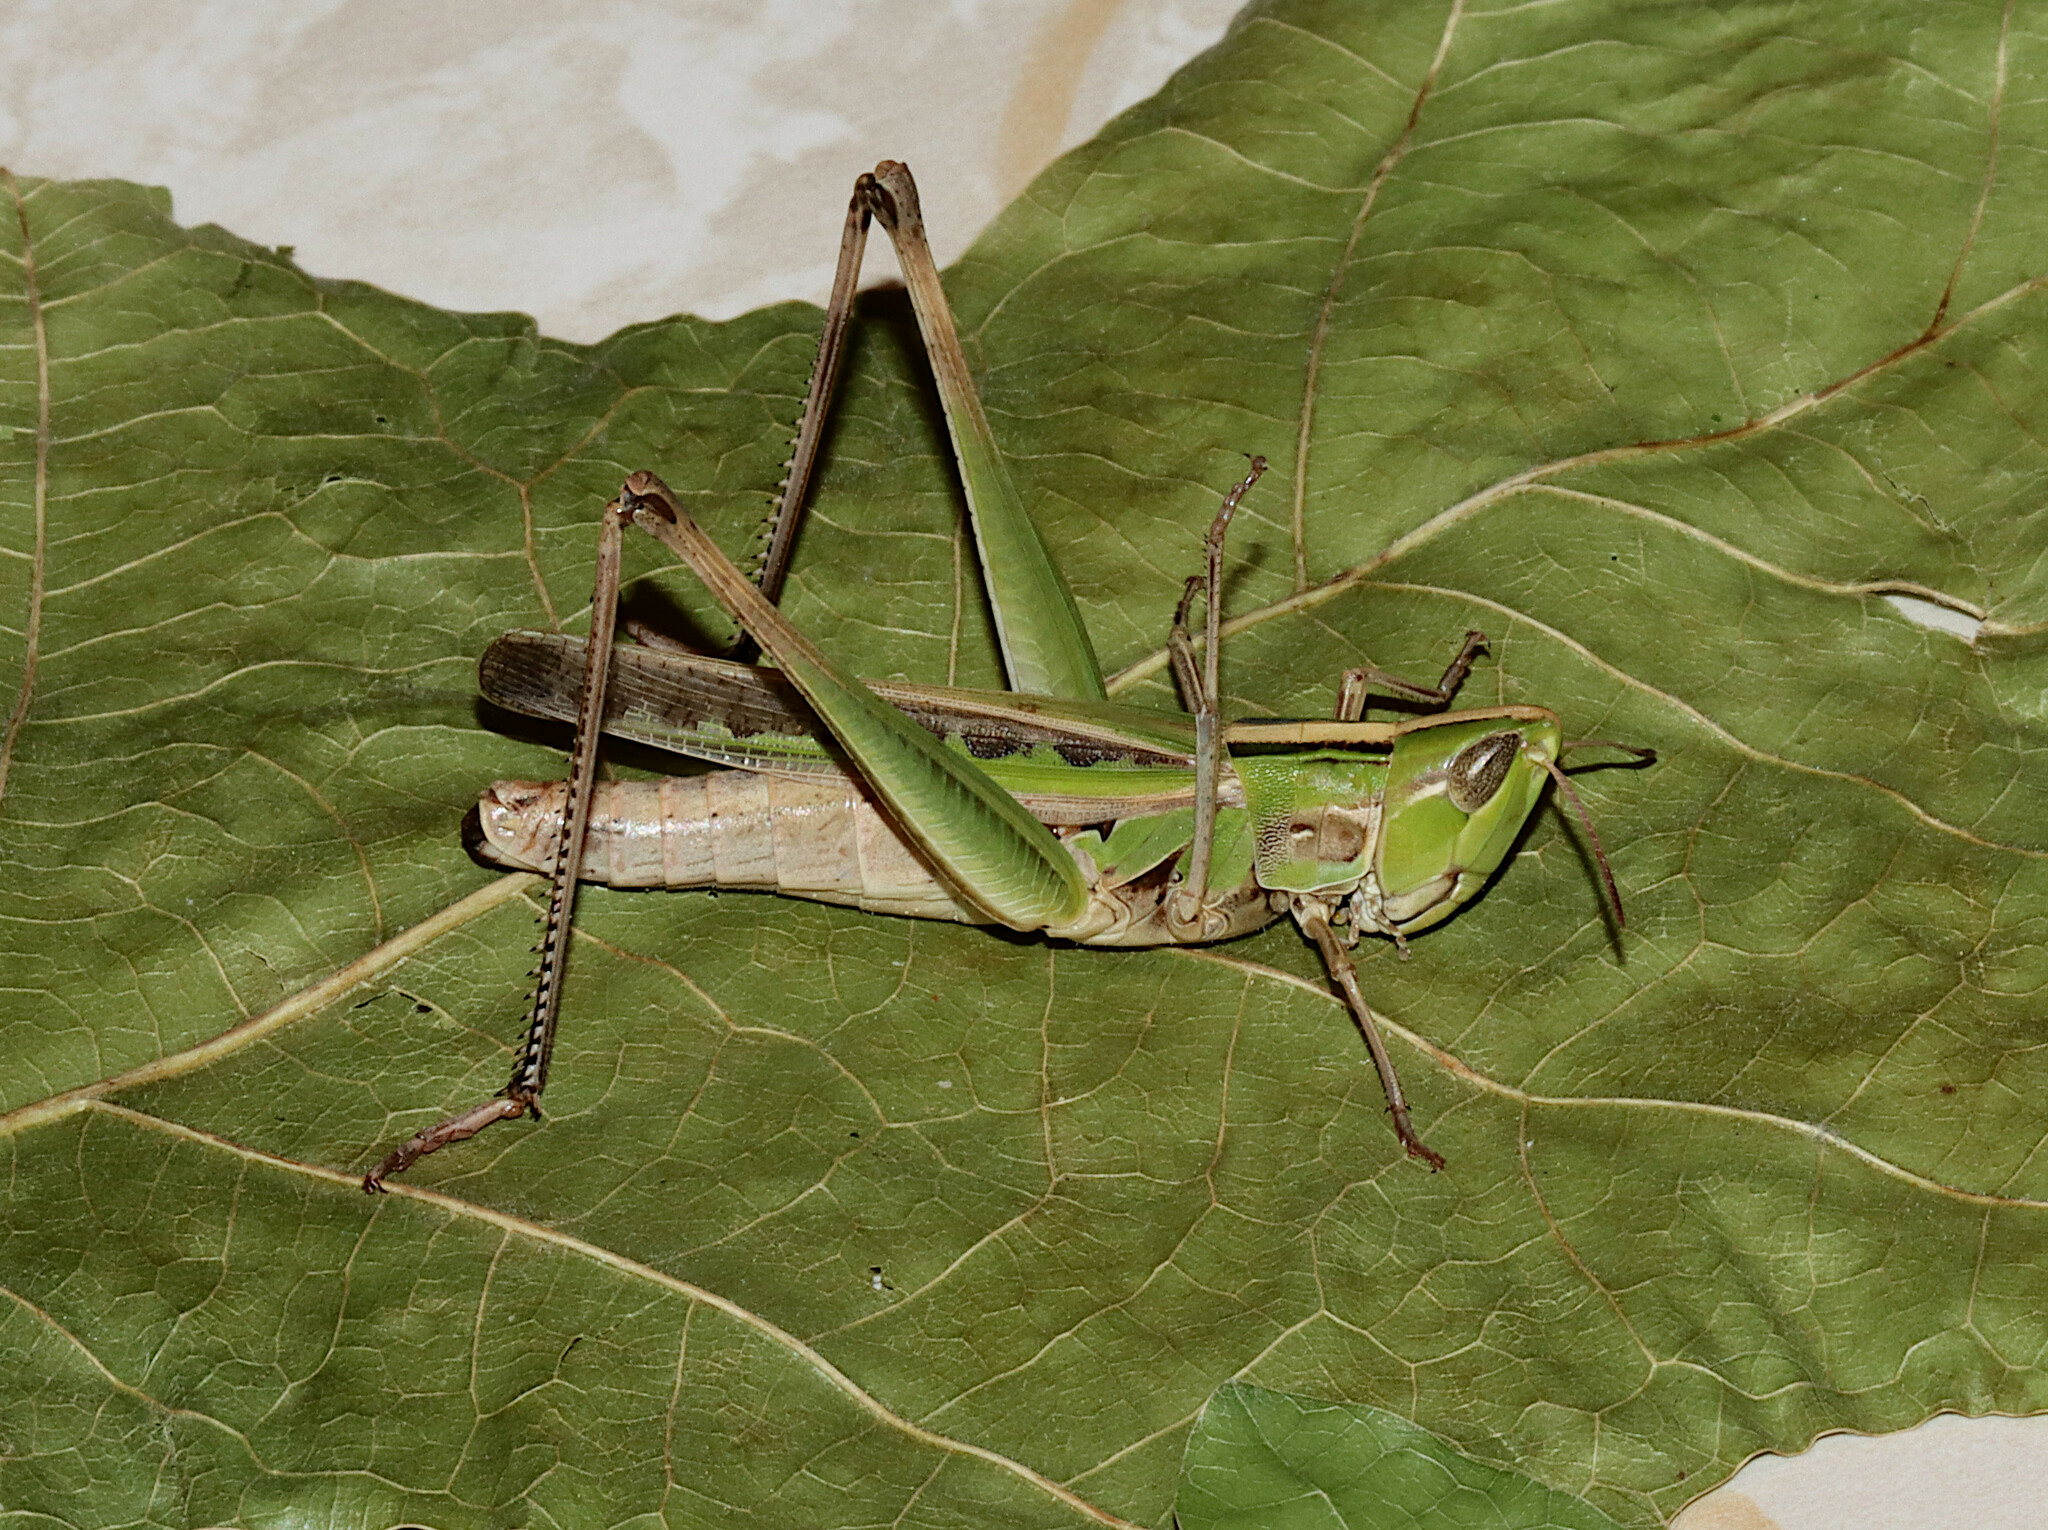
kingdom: Animalia
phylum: Arthropoda
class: Insecta
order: Orthoptera
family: Acrididae
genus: Syrbula
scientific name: Syrbula admirabilis
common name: Handsome grasshopper
